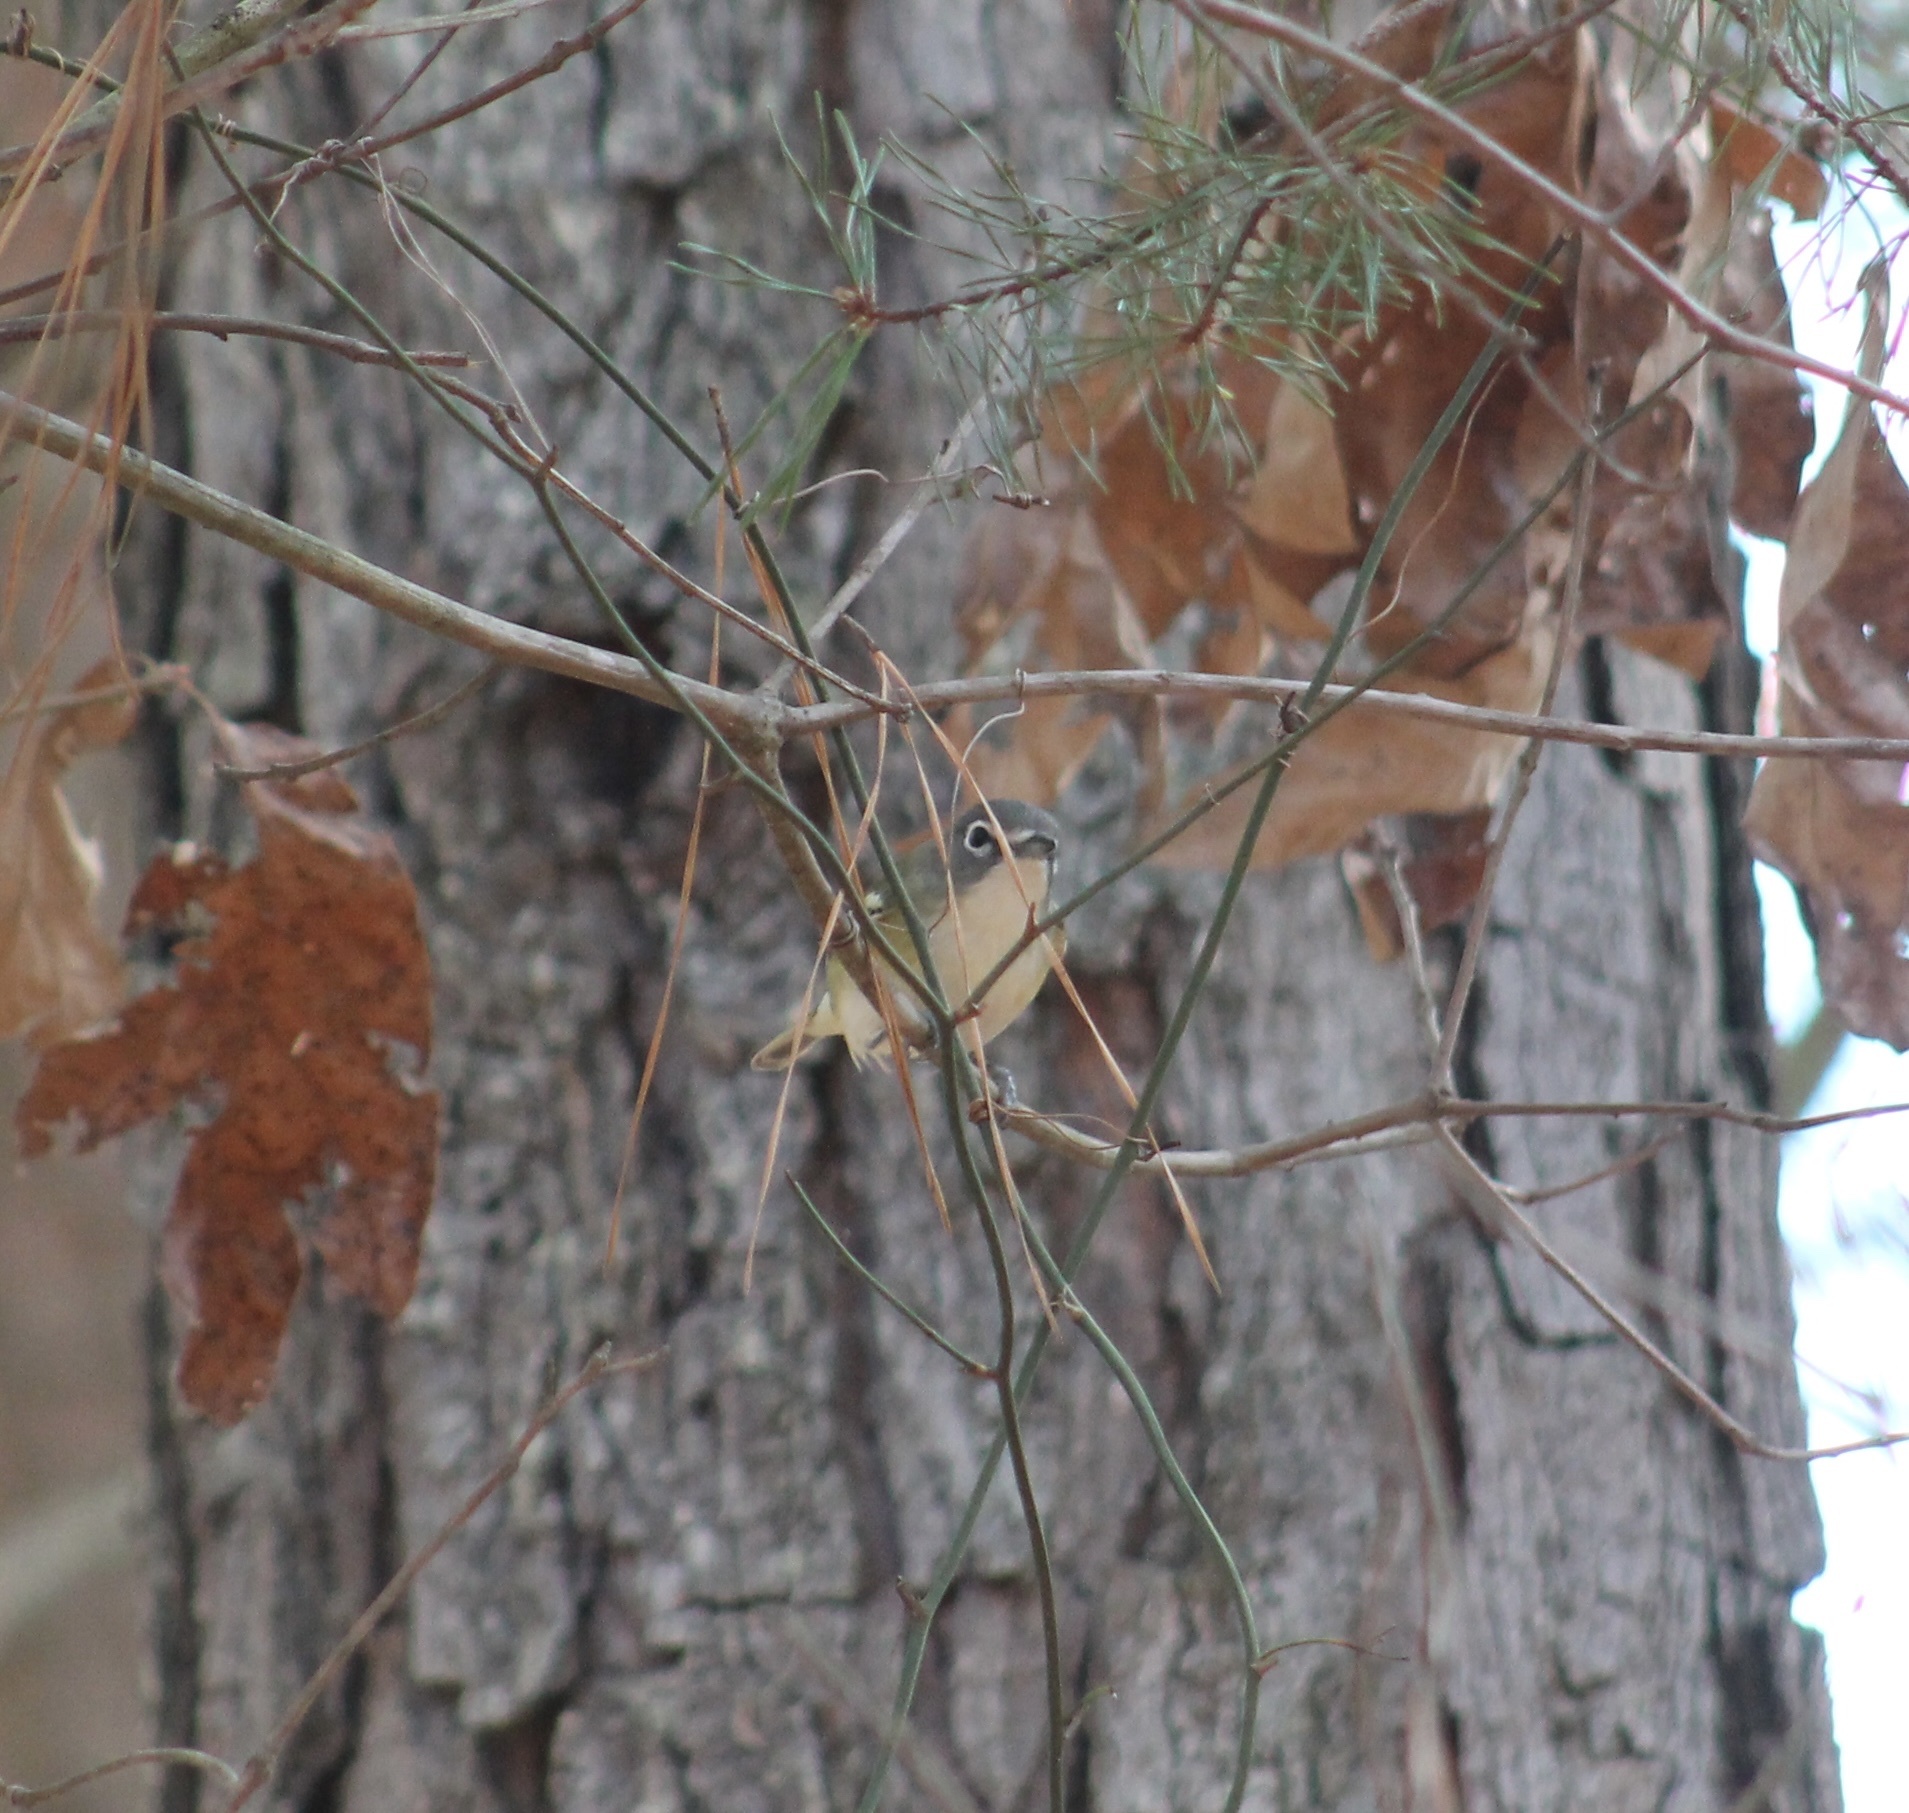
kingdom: Animalia
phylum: Chordata
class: Aves
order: Passeriformes
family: Vireonidae
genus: Vireo
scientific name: Vireo solitarius
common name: Blue-headed vireo
